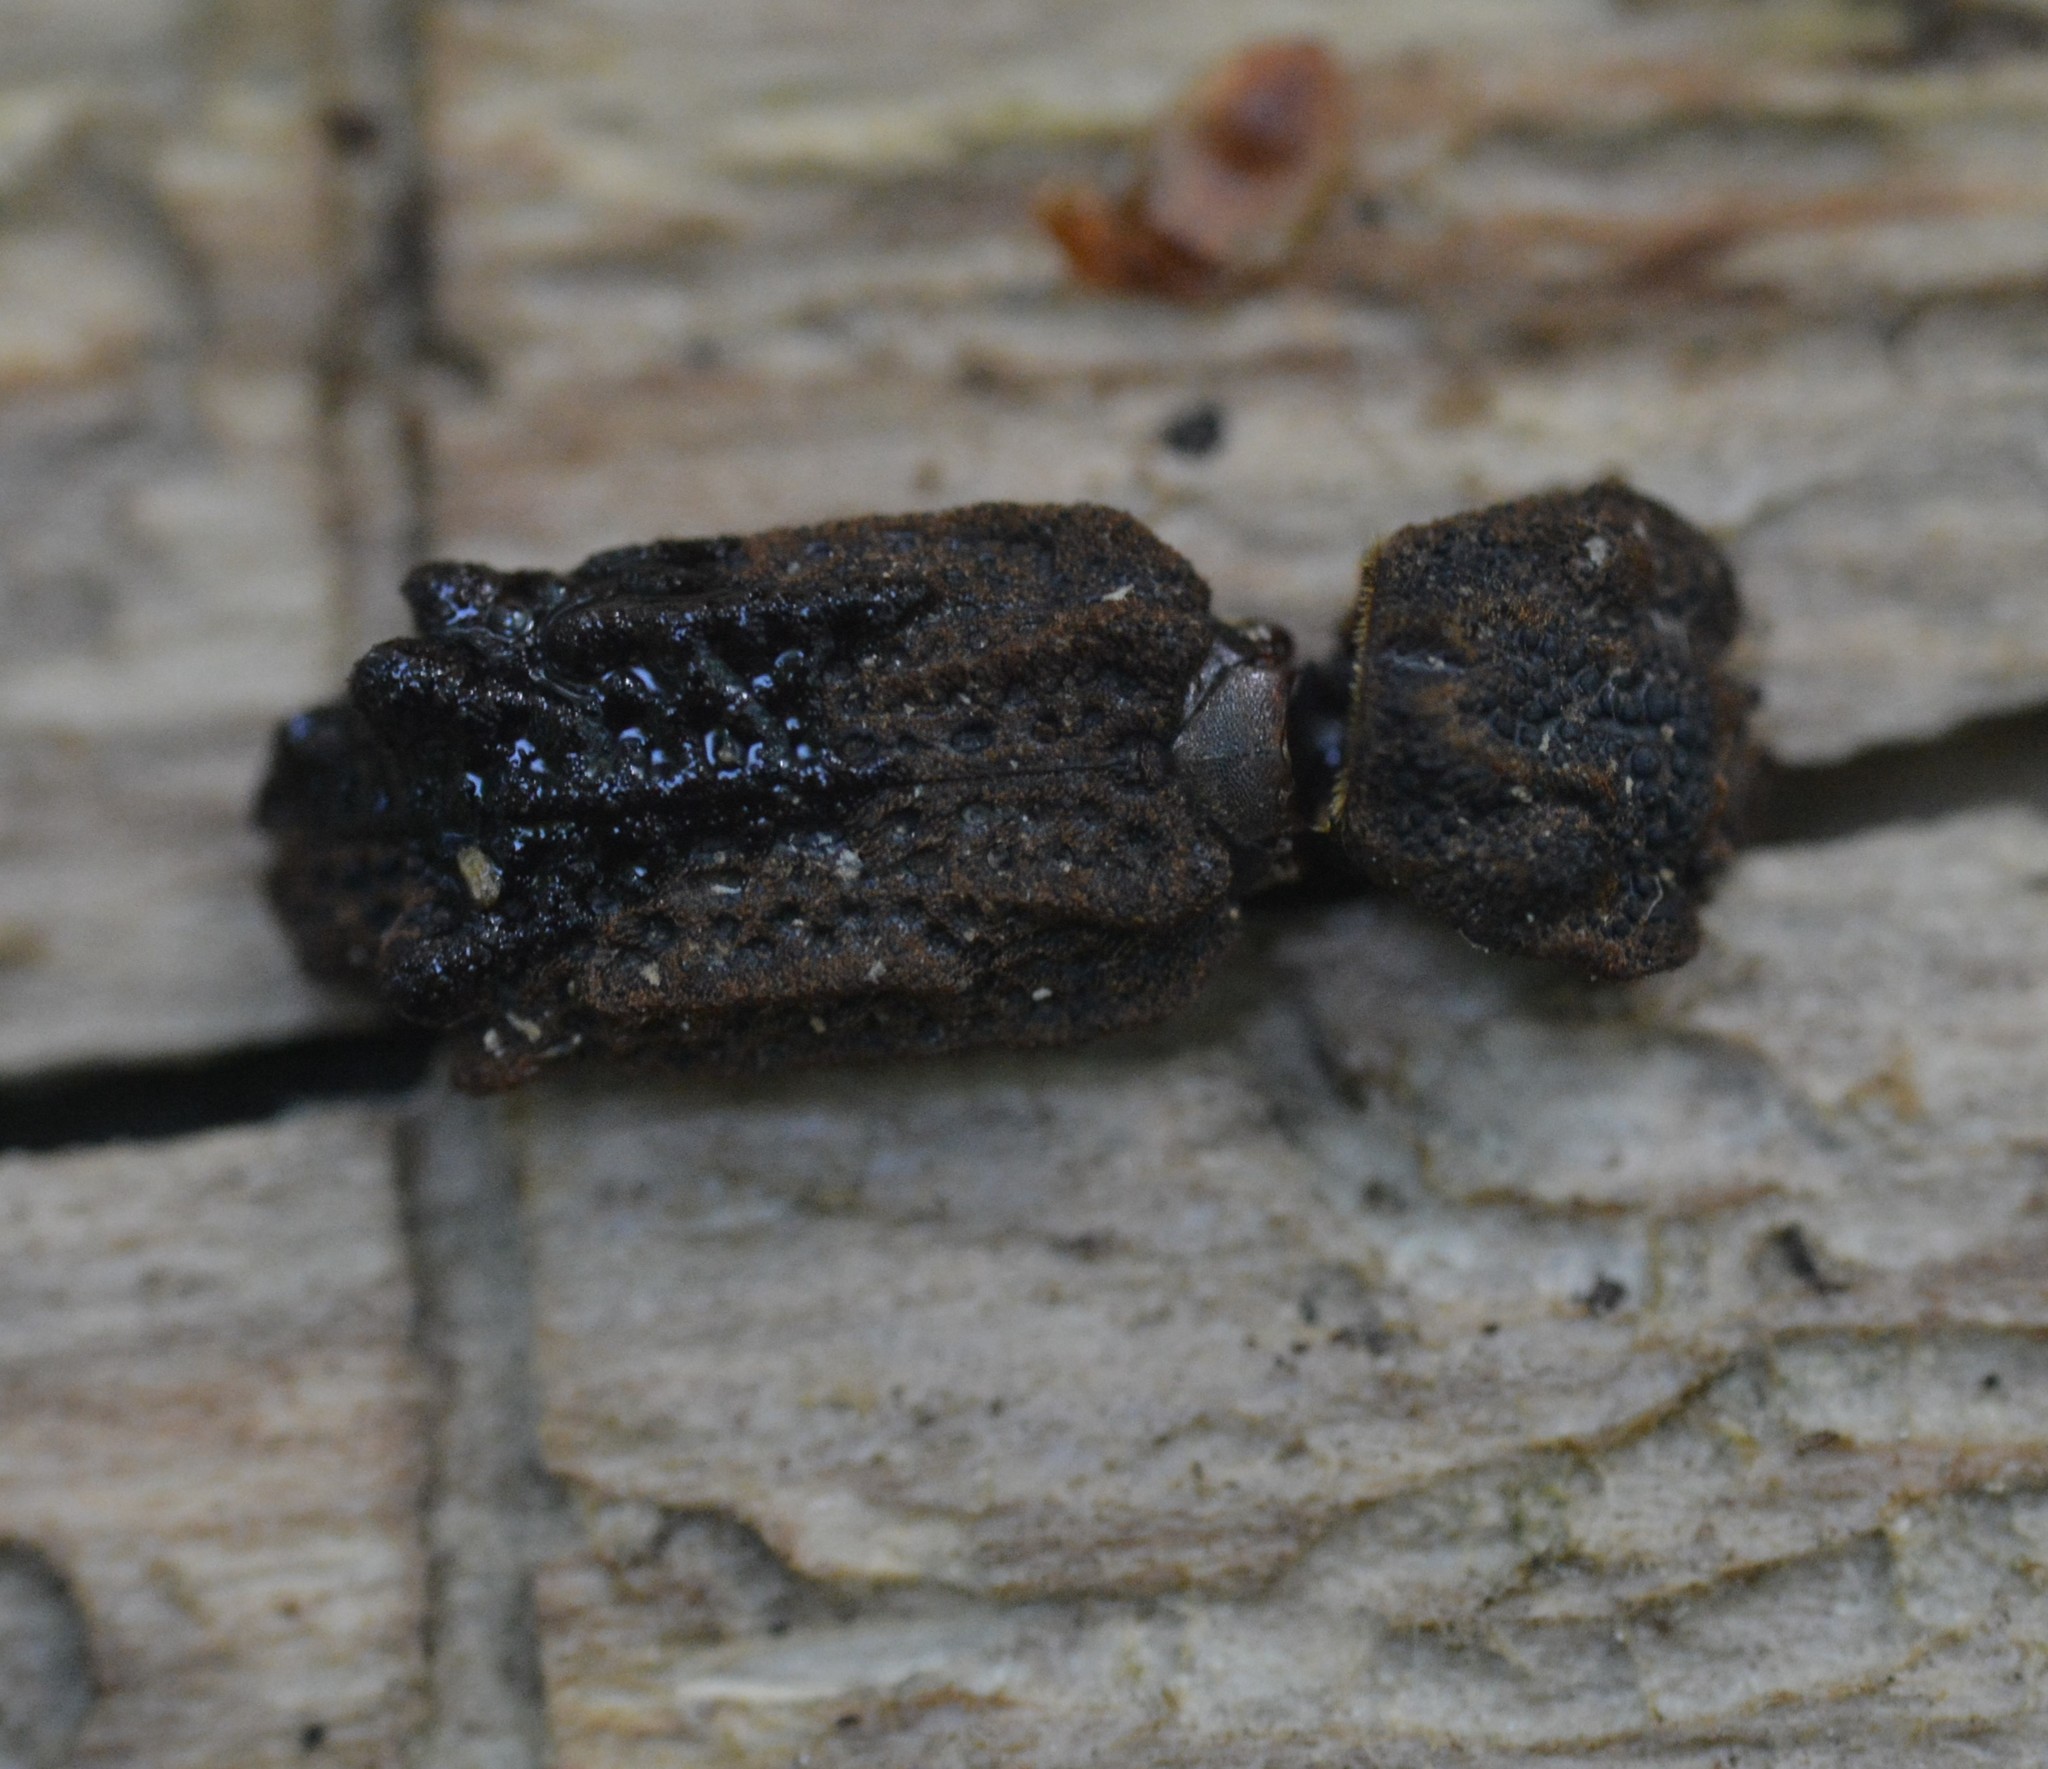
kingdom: Animalia
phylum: Arthropoda
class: Insecta
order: Coleoptera
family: Zopheridae
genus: Phellopsis
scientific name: Phellopsis obcordata
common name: Eastern ironclad beetle
